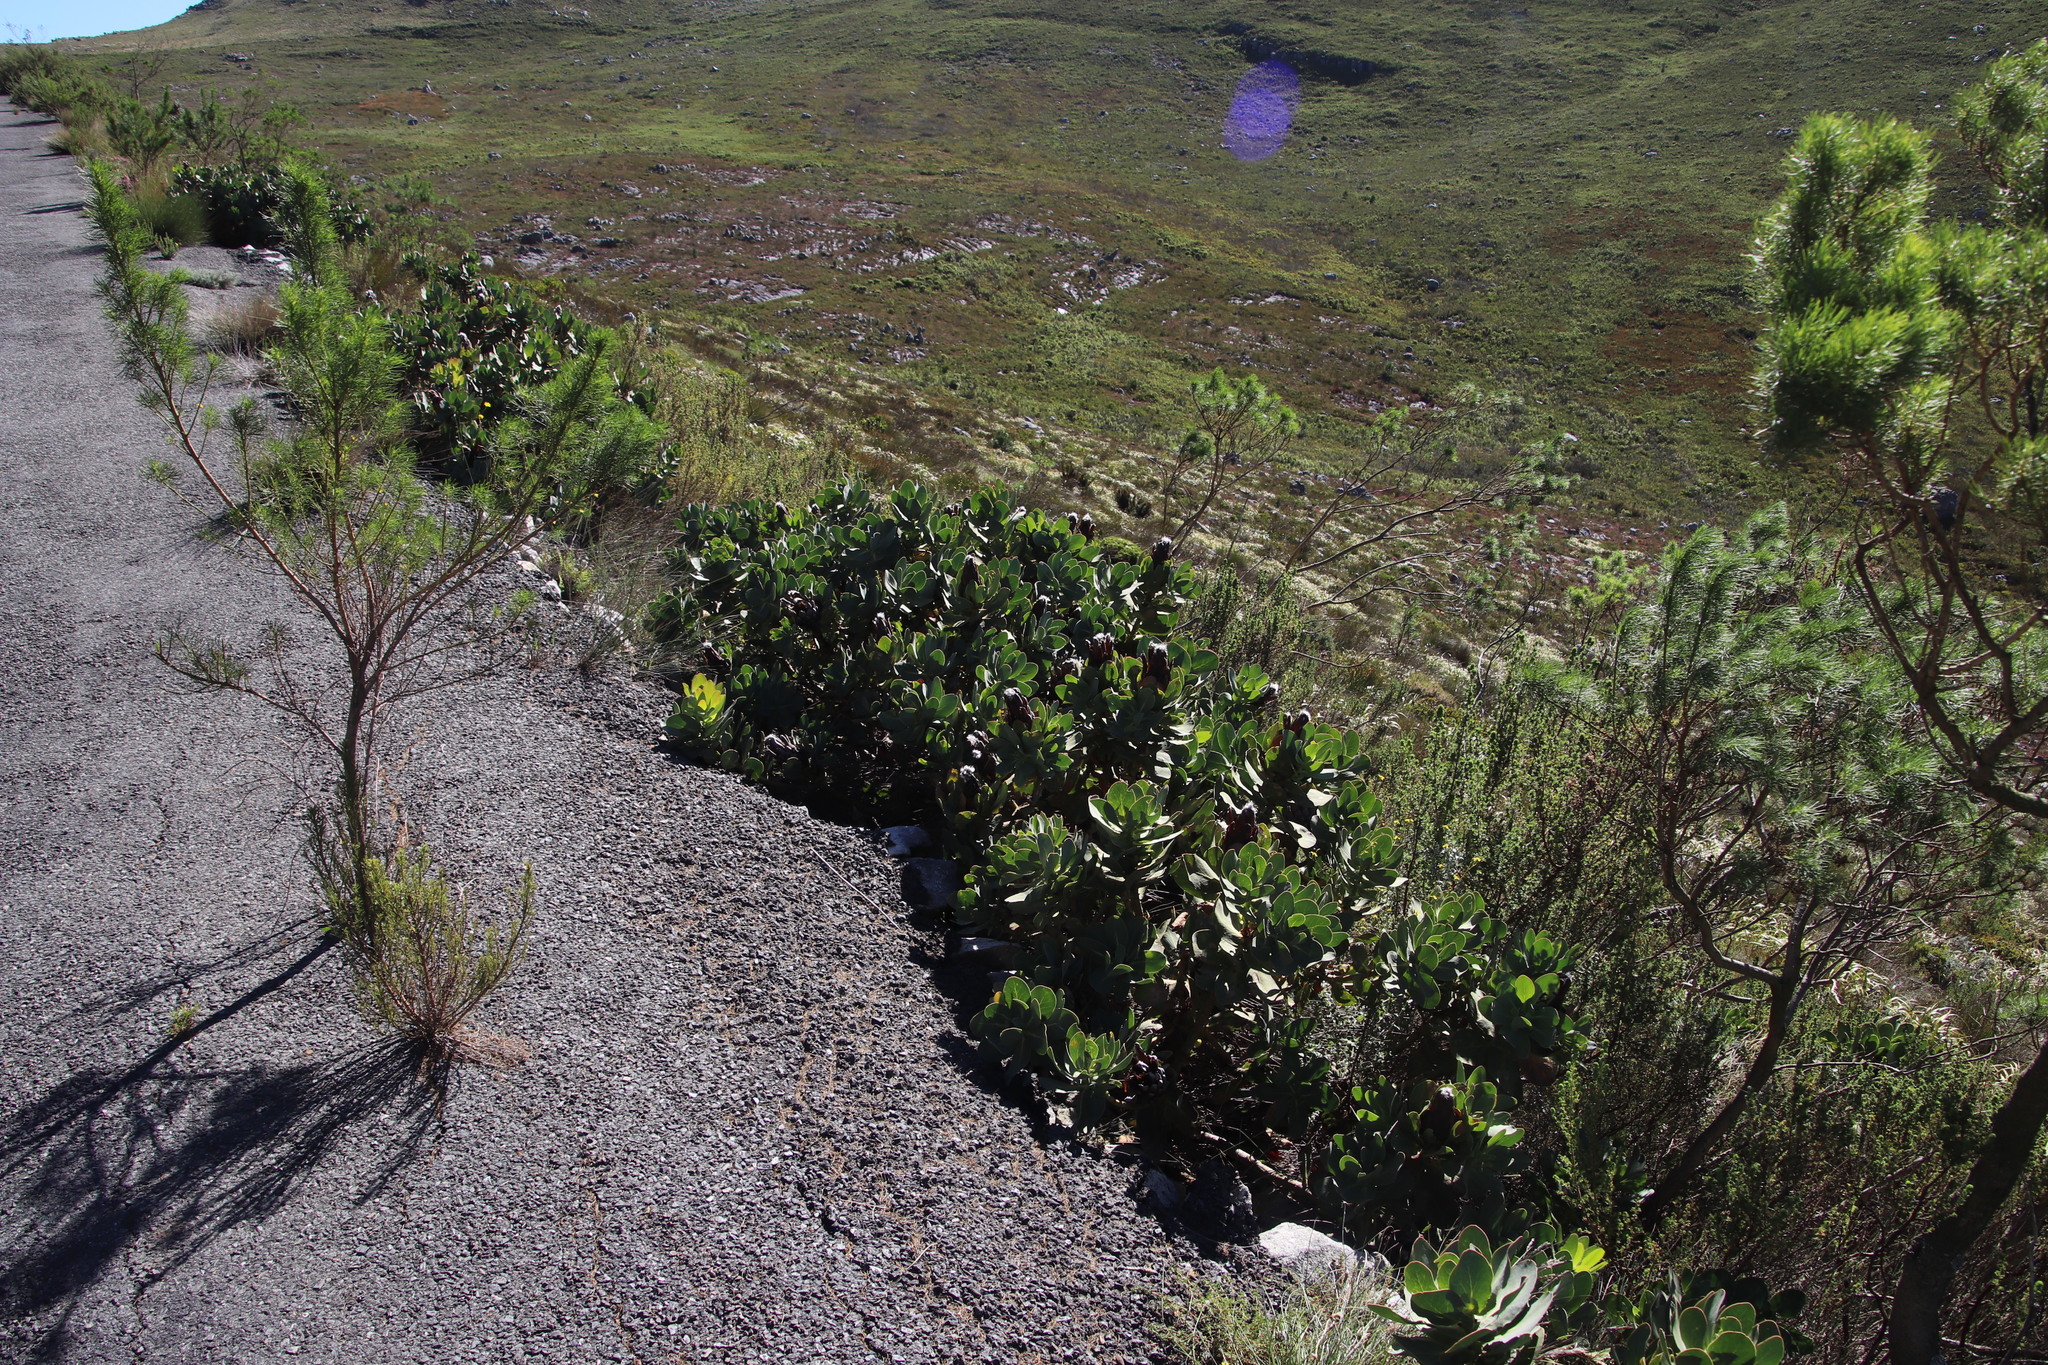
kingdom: Plantae
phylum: Tracheophyta
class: Magnoliopsida
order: Proteales
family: Proteaceae
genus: Protea
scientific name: Protea grandiceps
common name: Red sugarbush
